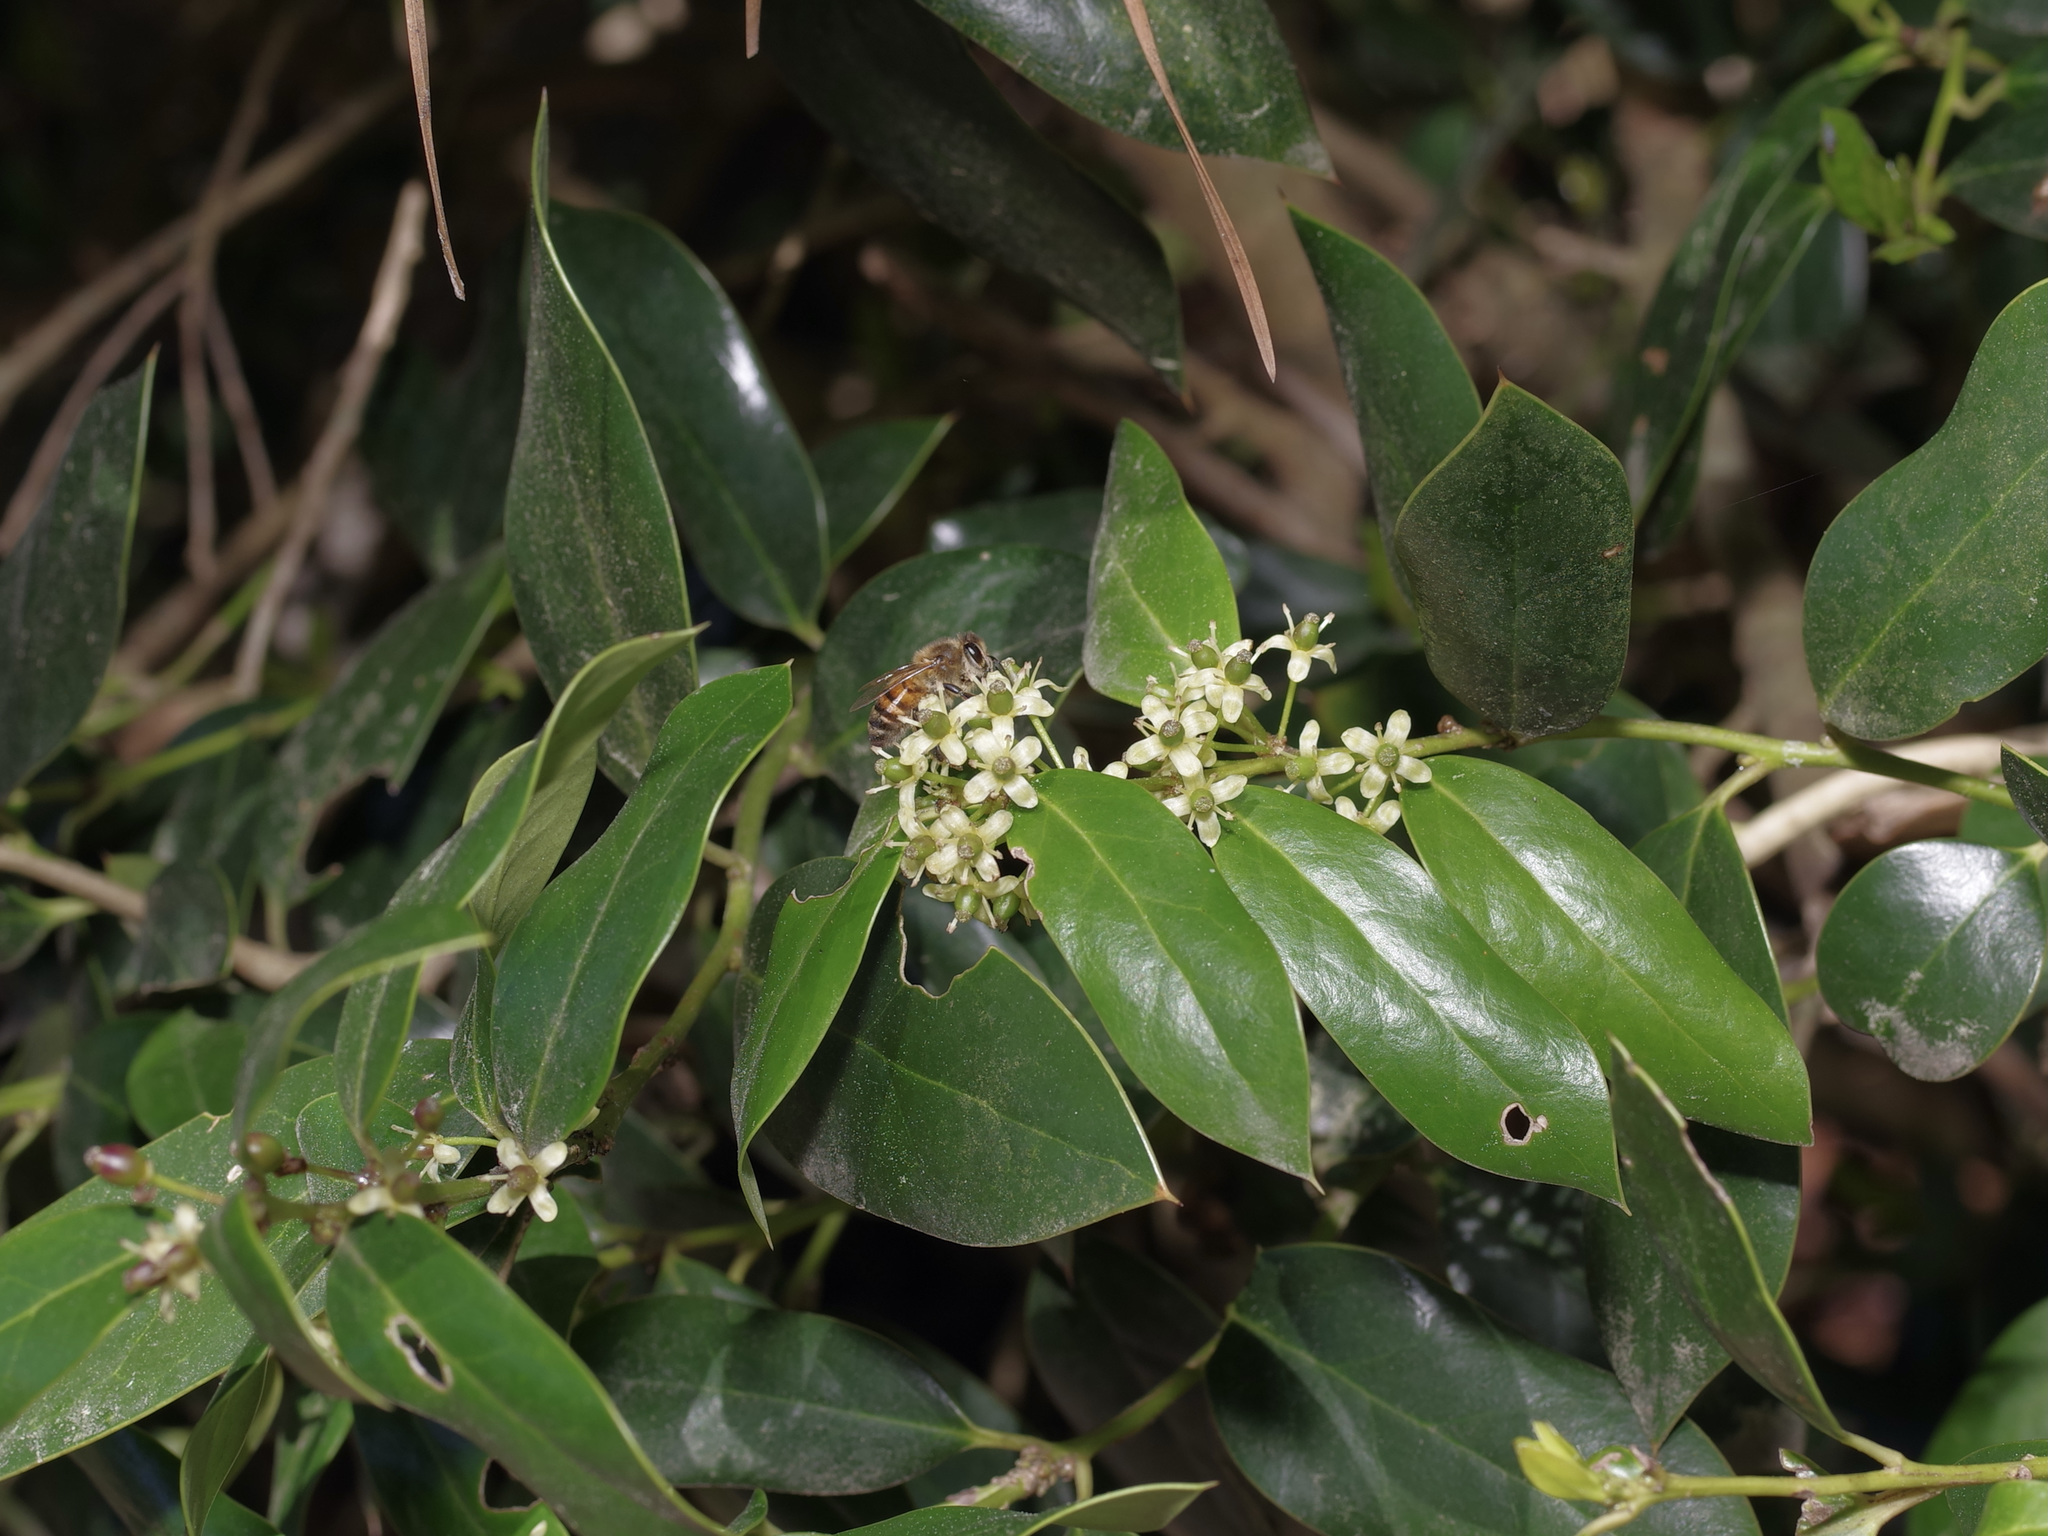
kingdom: Animalia
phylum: Arthropoda
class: Insecta
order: Hymenoptera
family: Apidae
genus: Apis
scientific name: Apis mellifera
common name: Honey bee
